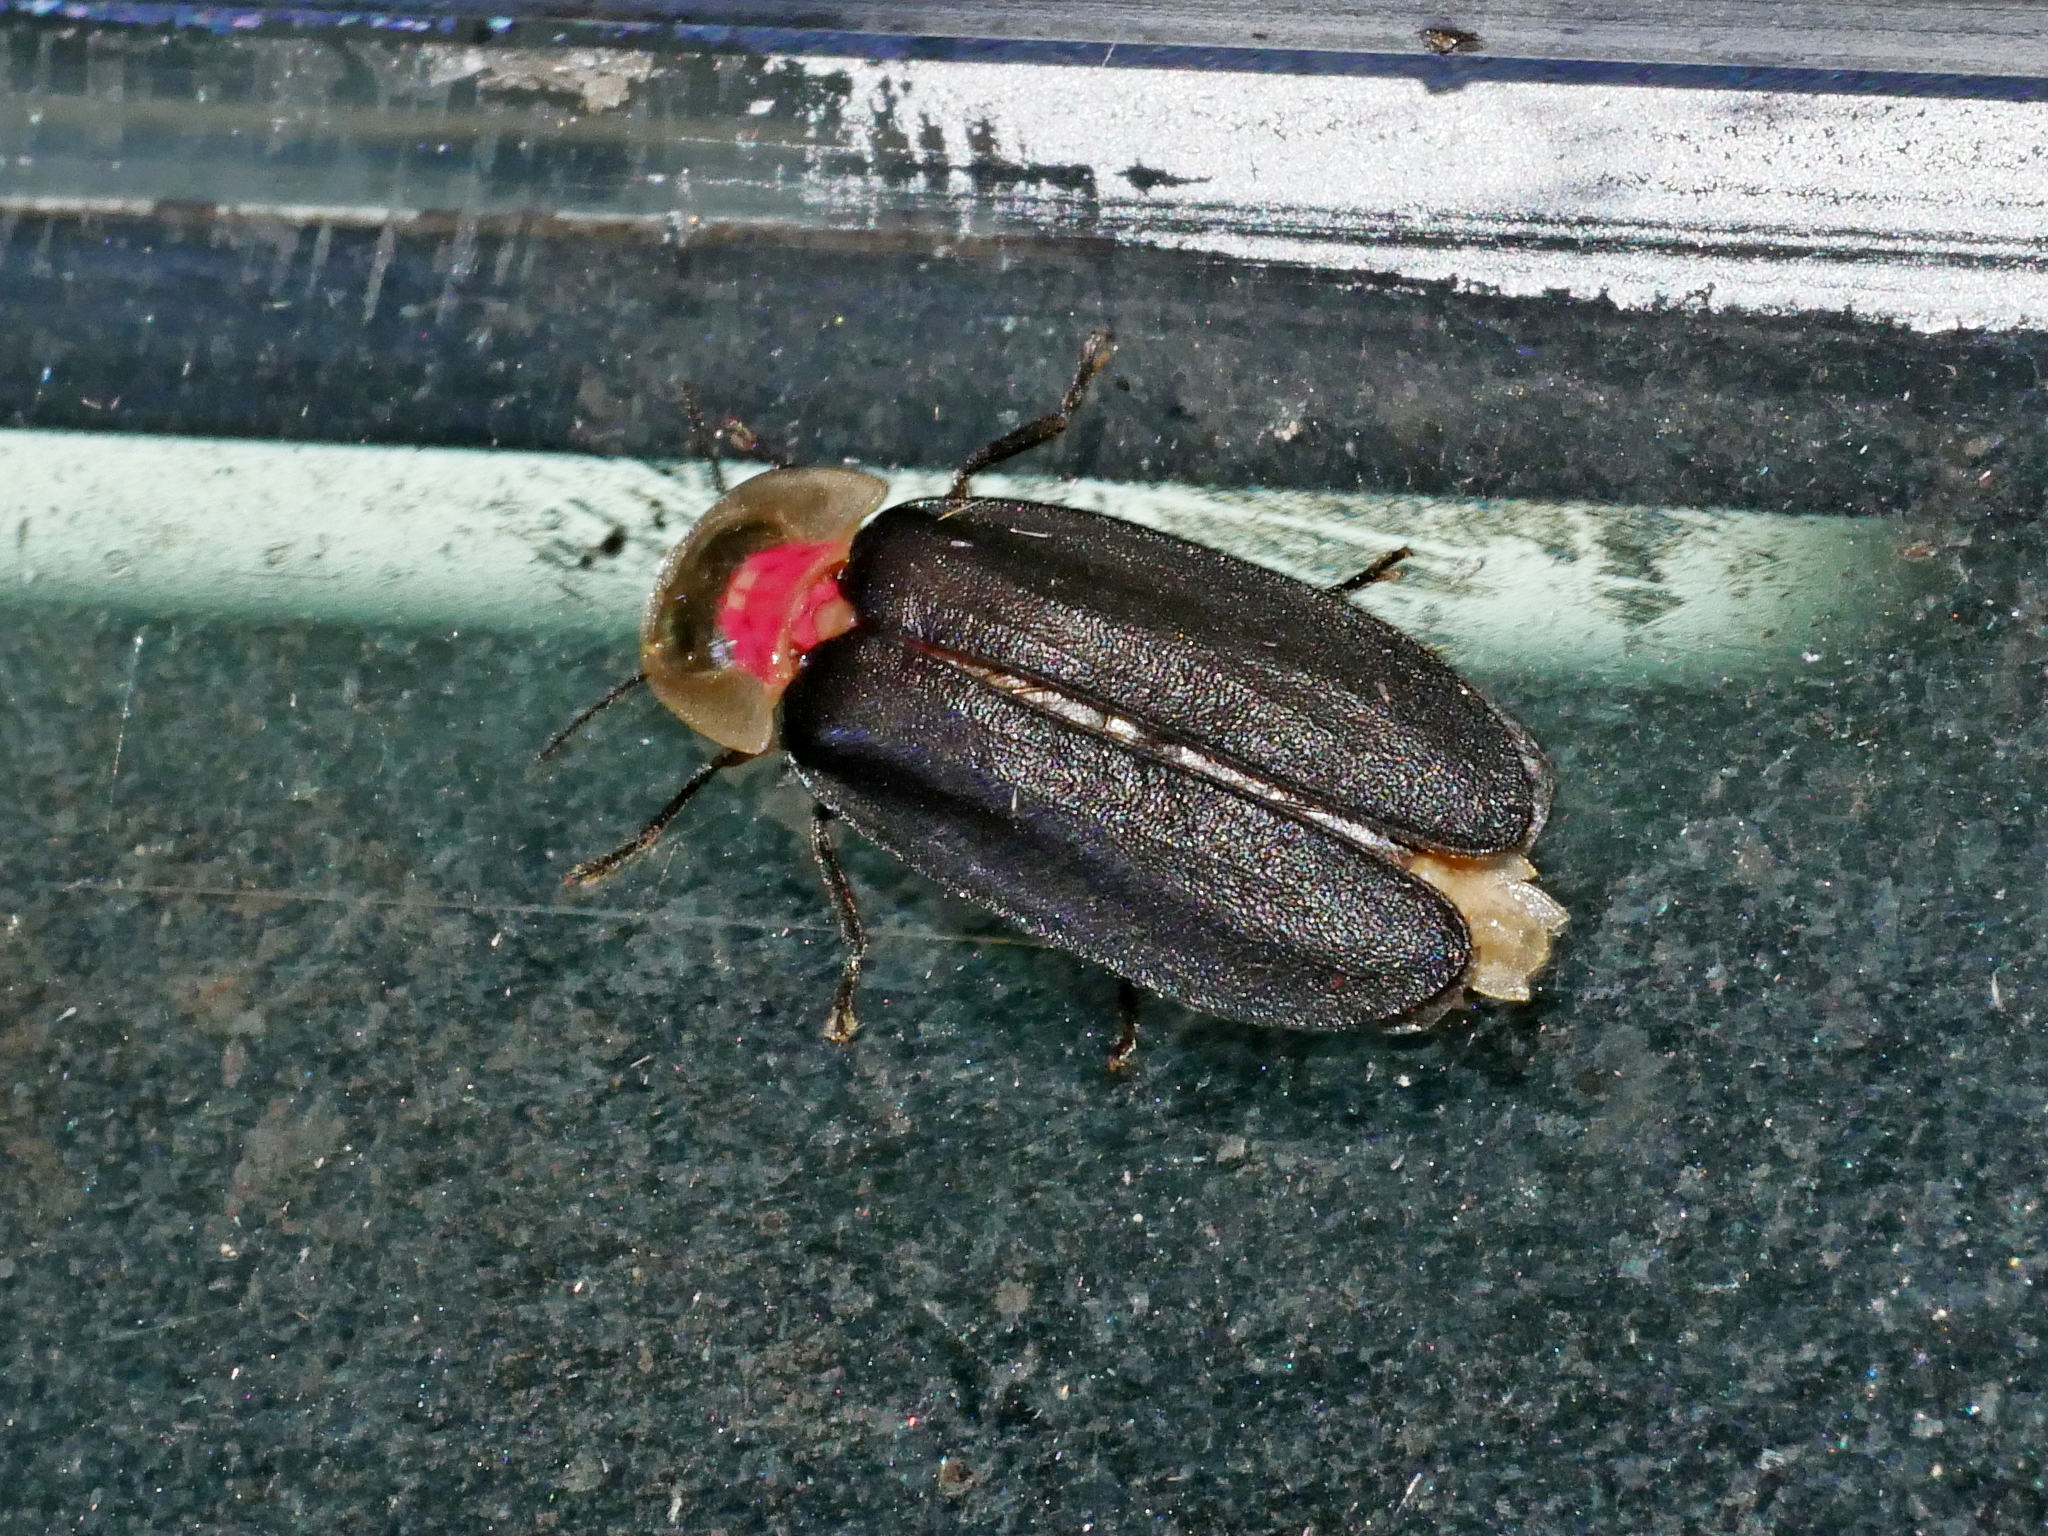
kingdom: Animalia
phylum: Arthropoda
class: Insecta
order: Coleoptera
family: Lampyridae
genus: Diaphanes
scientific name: Diaphanes formosus
